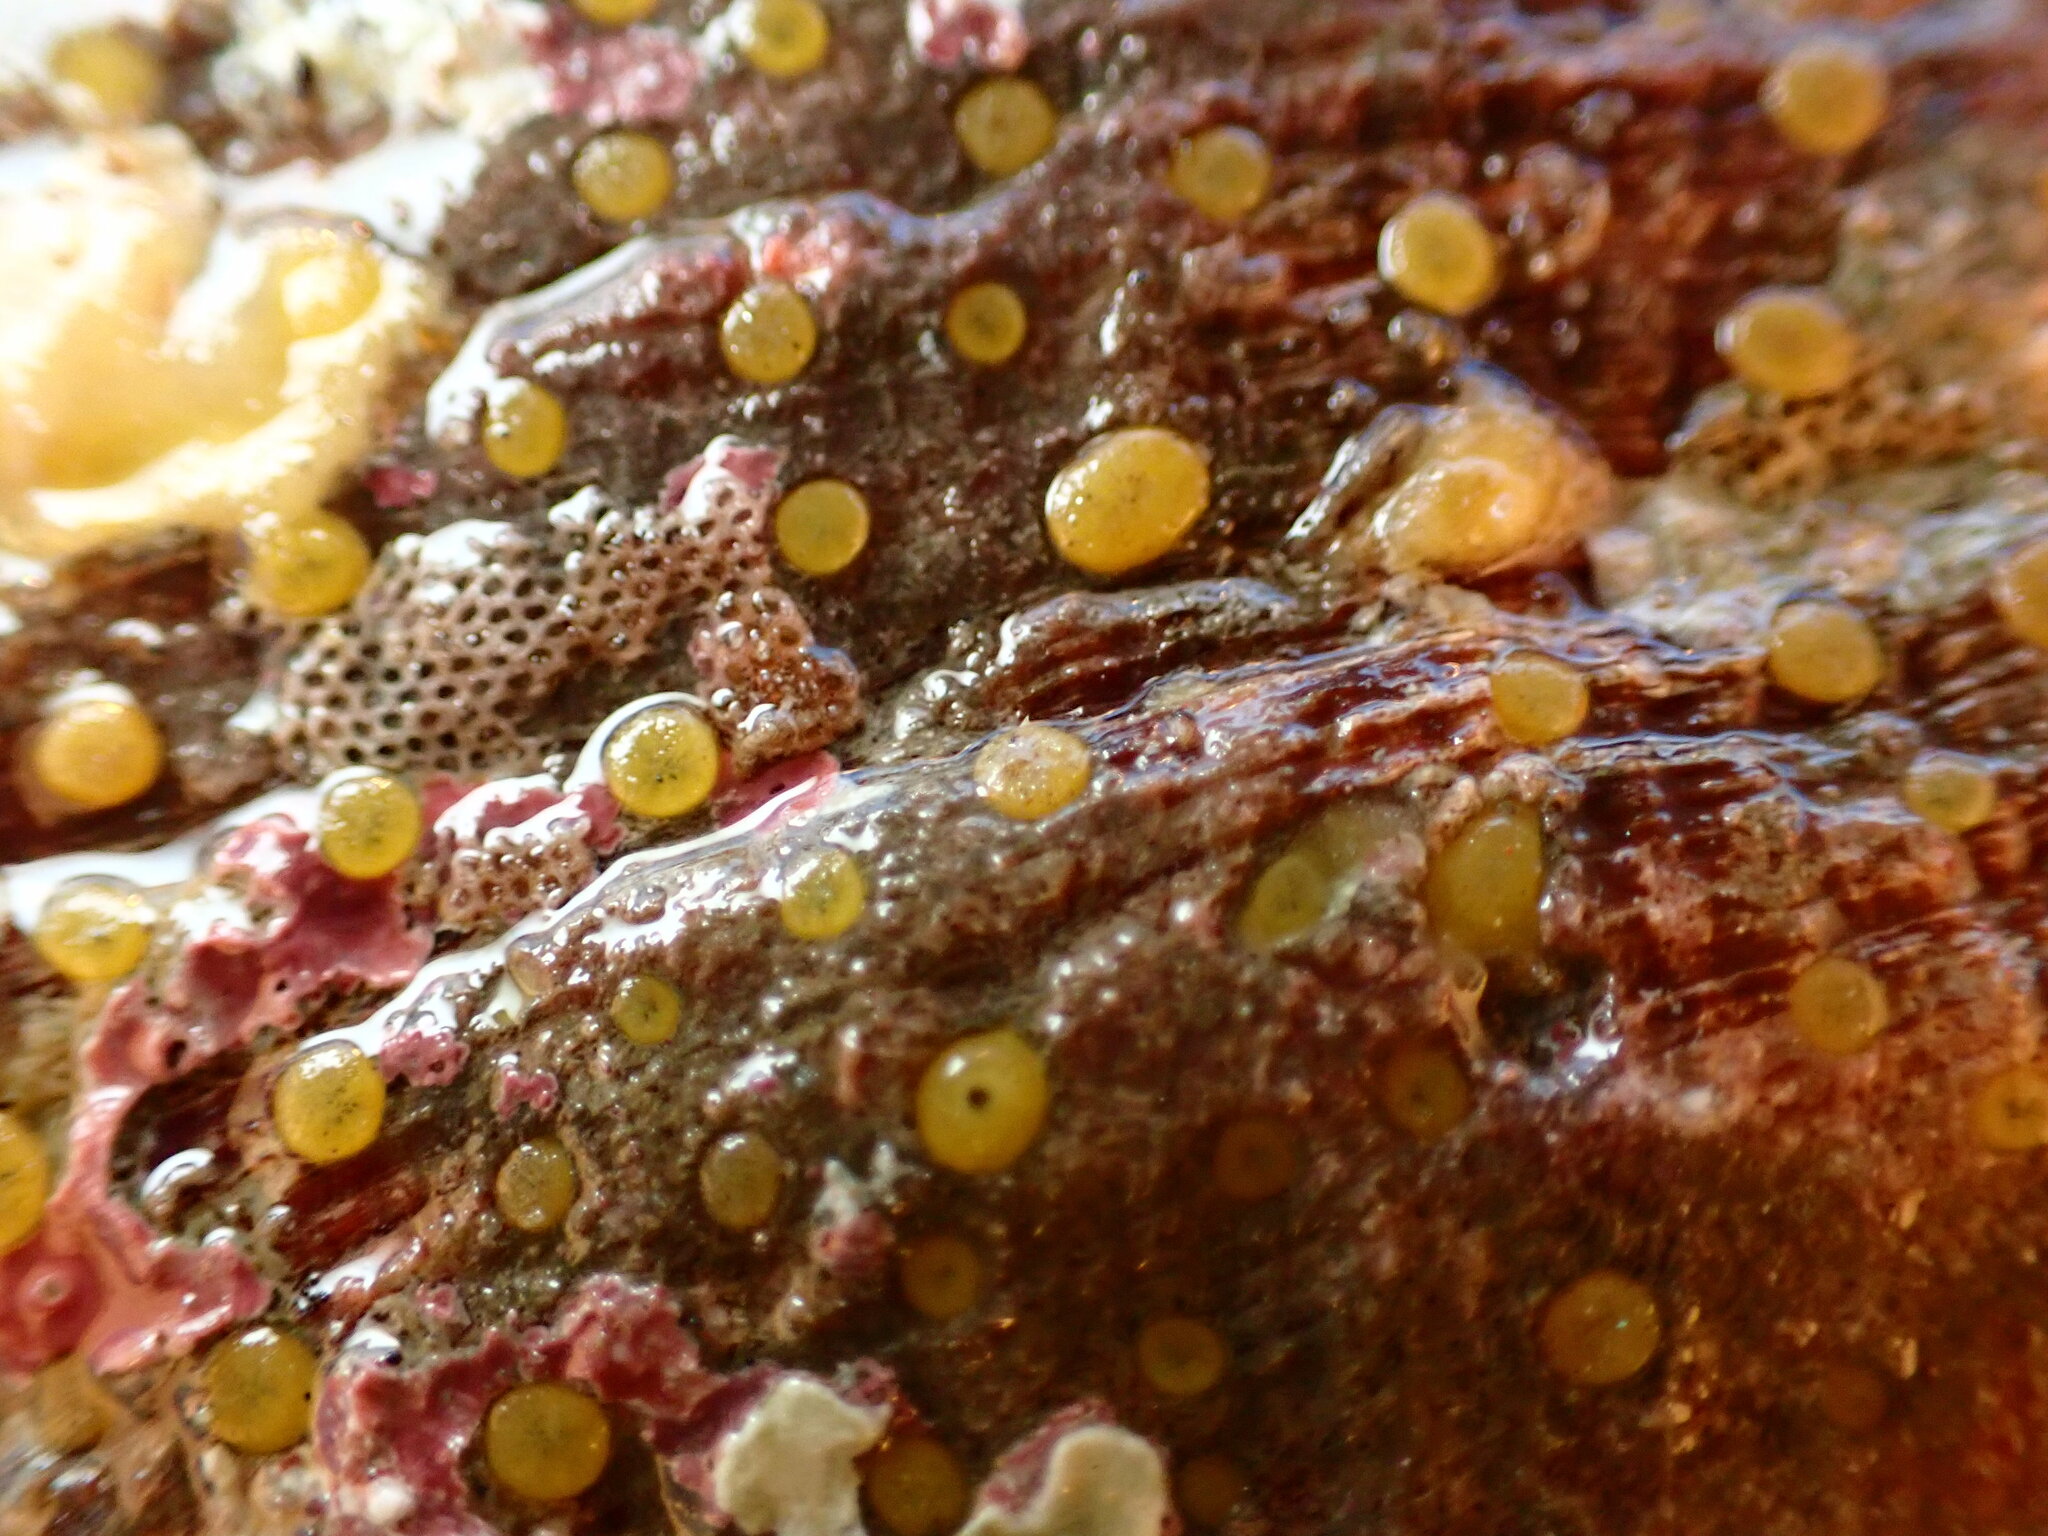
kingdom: Animalia
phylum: Porifera
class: Demospongiae
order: Clionaida
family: Clionaidae
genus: Cliona
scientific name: Cliona californiana
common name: California boring horny sponge
